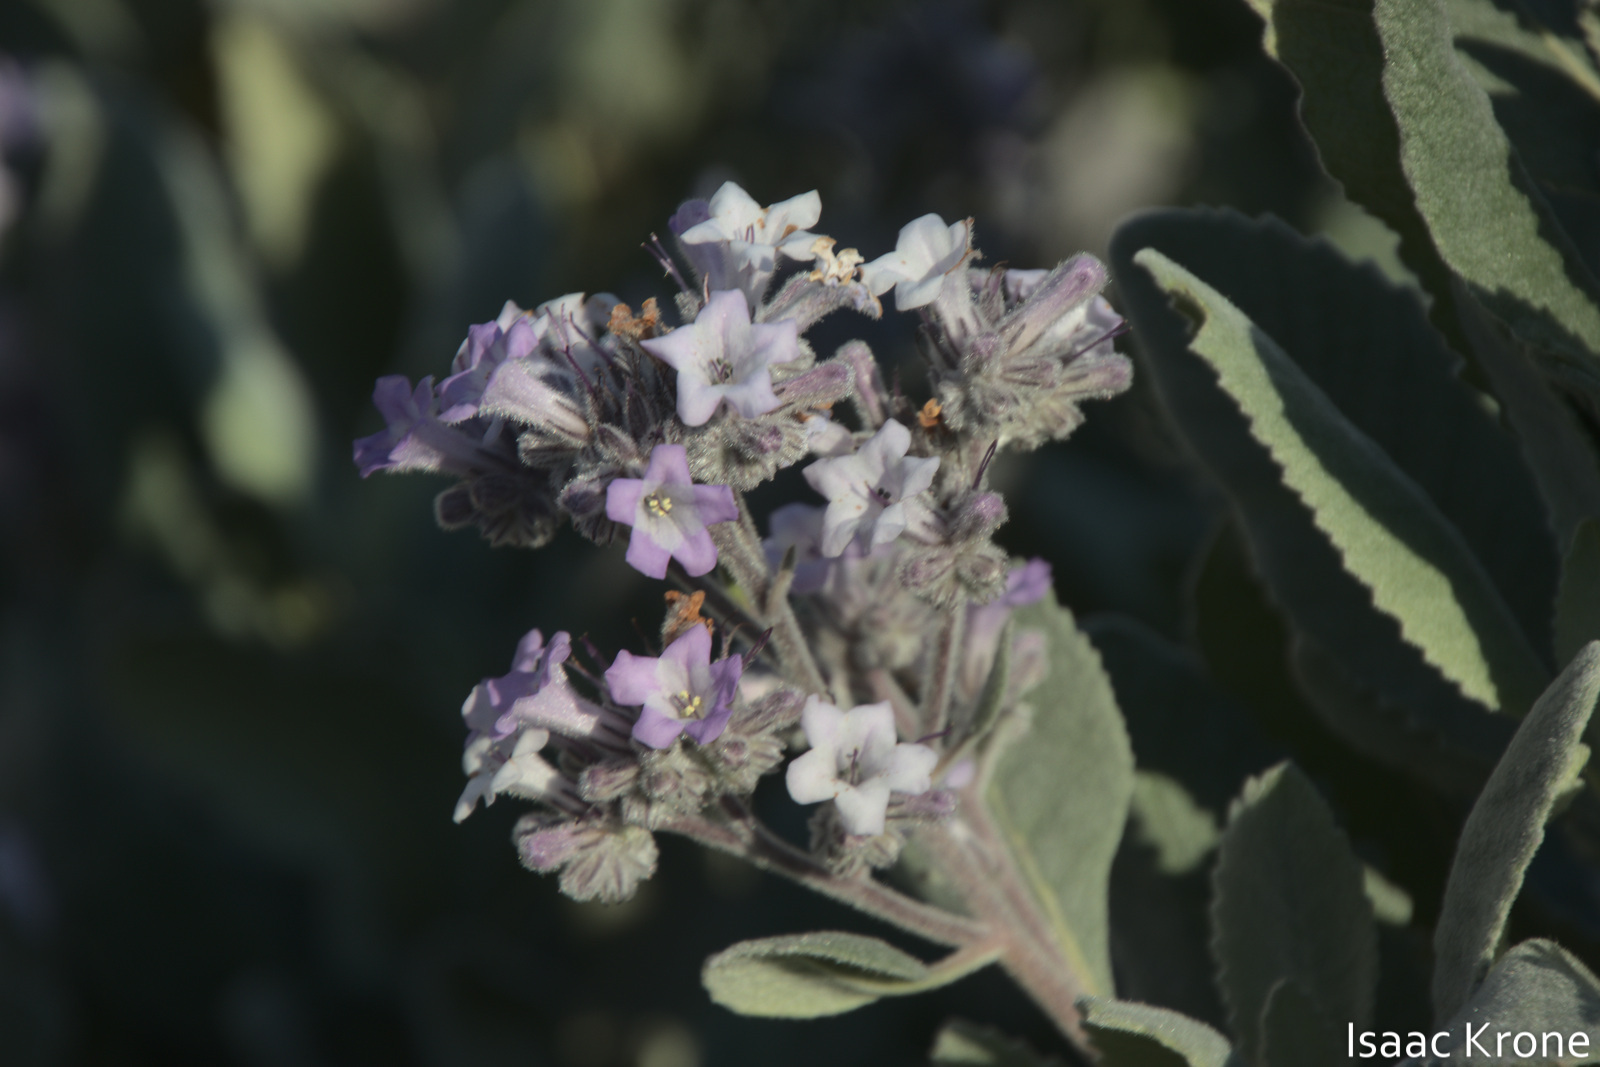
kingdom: Plantae
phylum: Tracheophyta
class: Magnoliopsida
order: Boraginales
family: Namaceae
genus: Eriodictyon
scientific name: Eriodictyon crassifolium
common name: Thick-leaf yerba-santa
